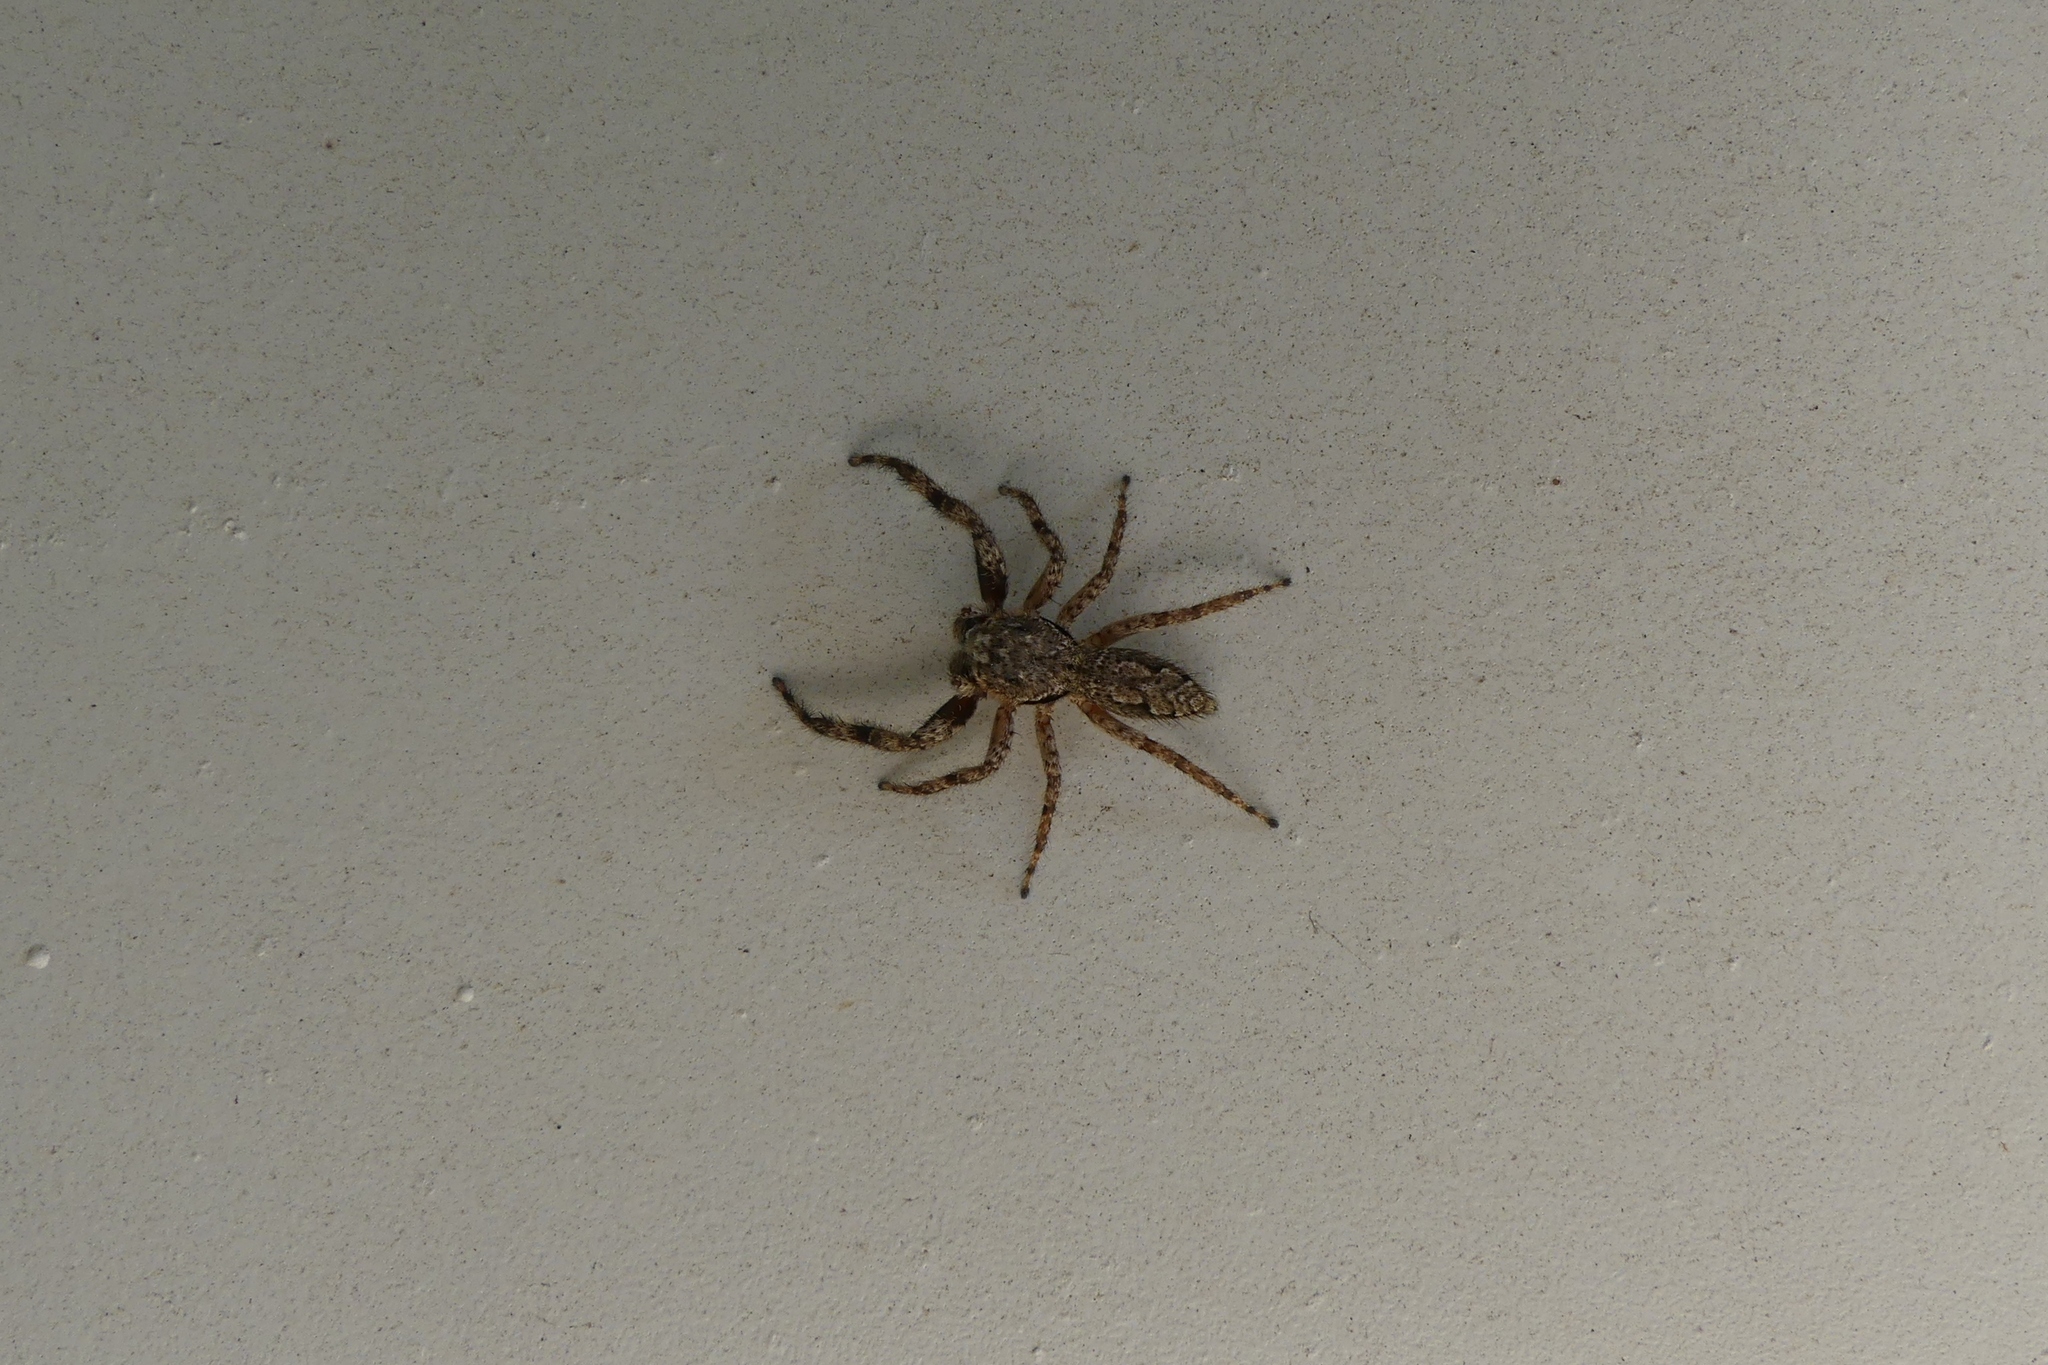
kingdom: Animalia
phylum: Arthropoda
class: Arachnida
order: Araneae
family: Salticidae
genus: Platycryptus
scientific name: Platycryptus undatus
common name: Tan jumping spider
